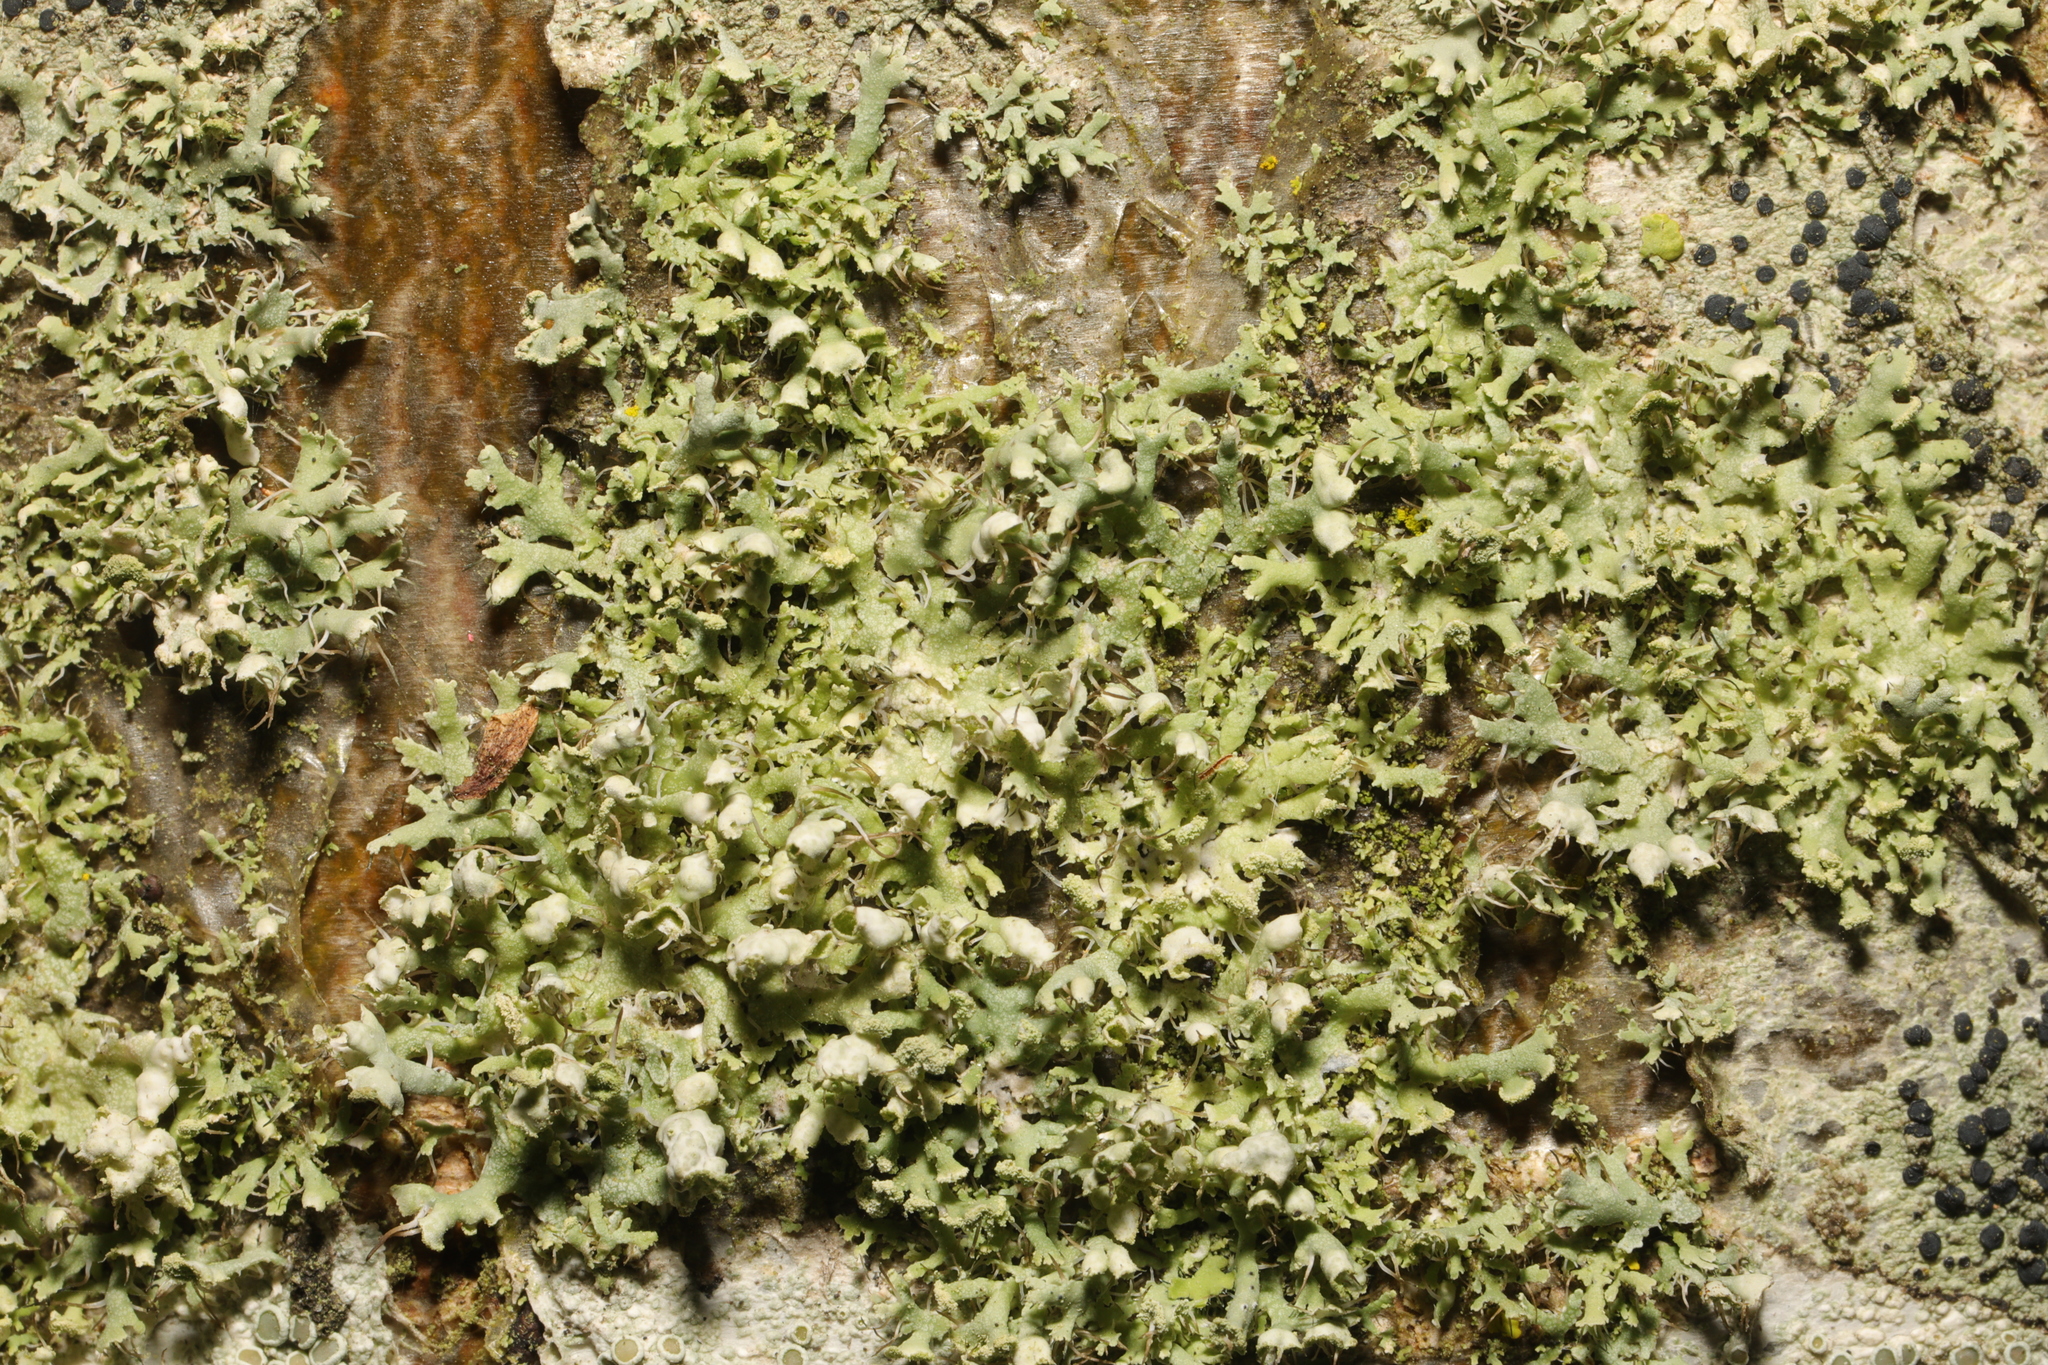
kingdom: Fungi
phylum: Ascomycota
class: Lecanoromycetes
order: Caliciales
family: Physciaceae
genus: Physcia
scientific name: Physcia adscendens
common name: Hooded rosette lichen
